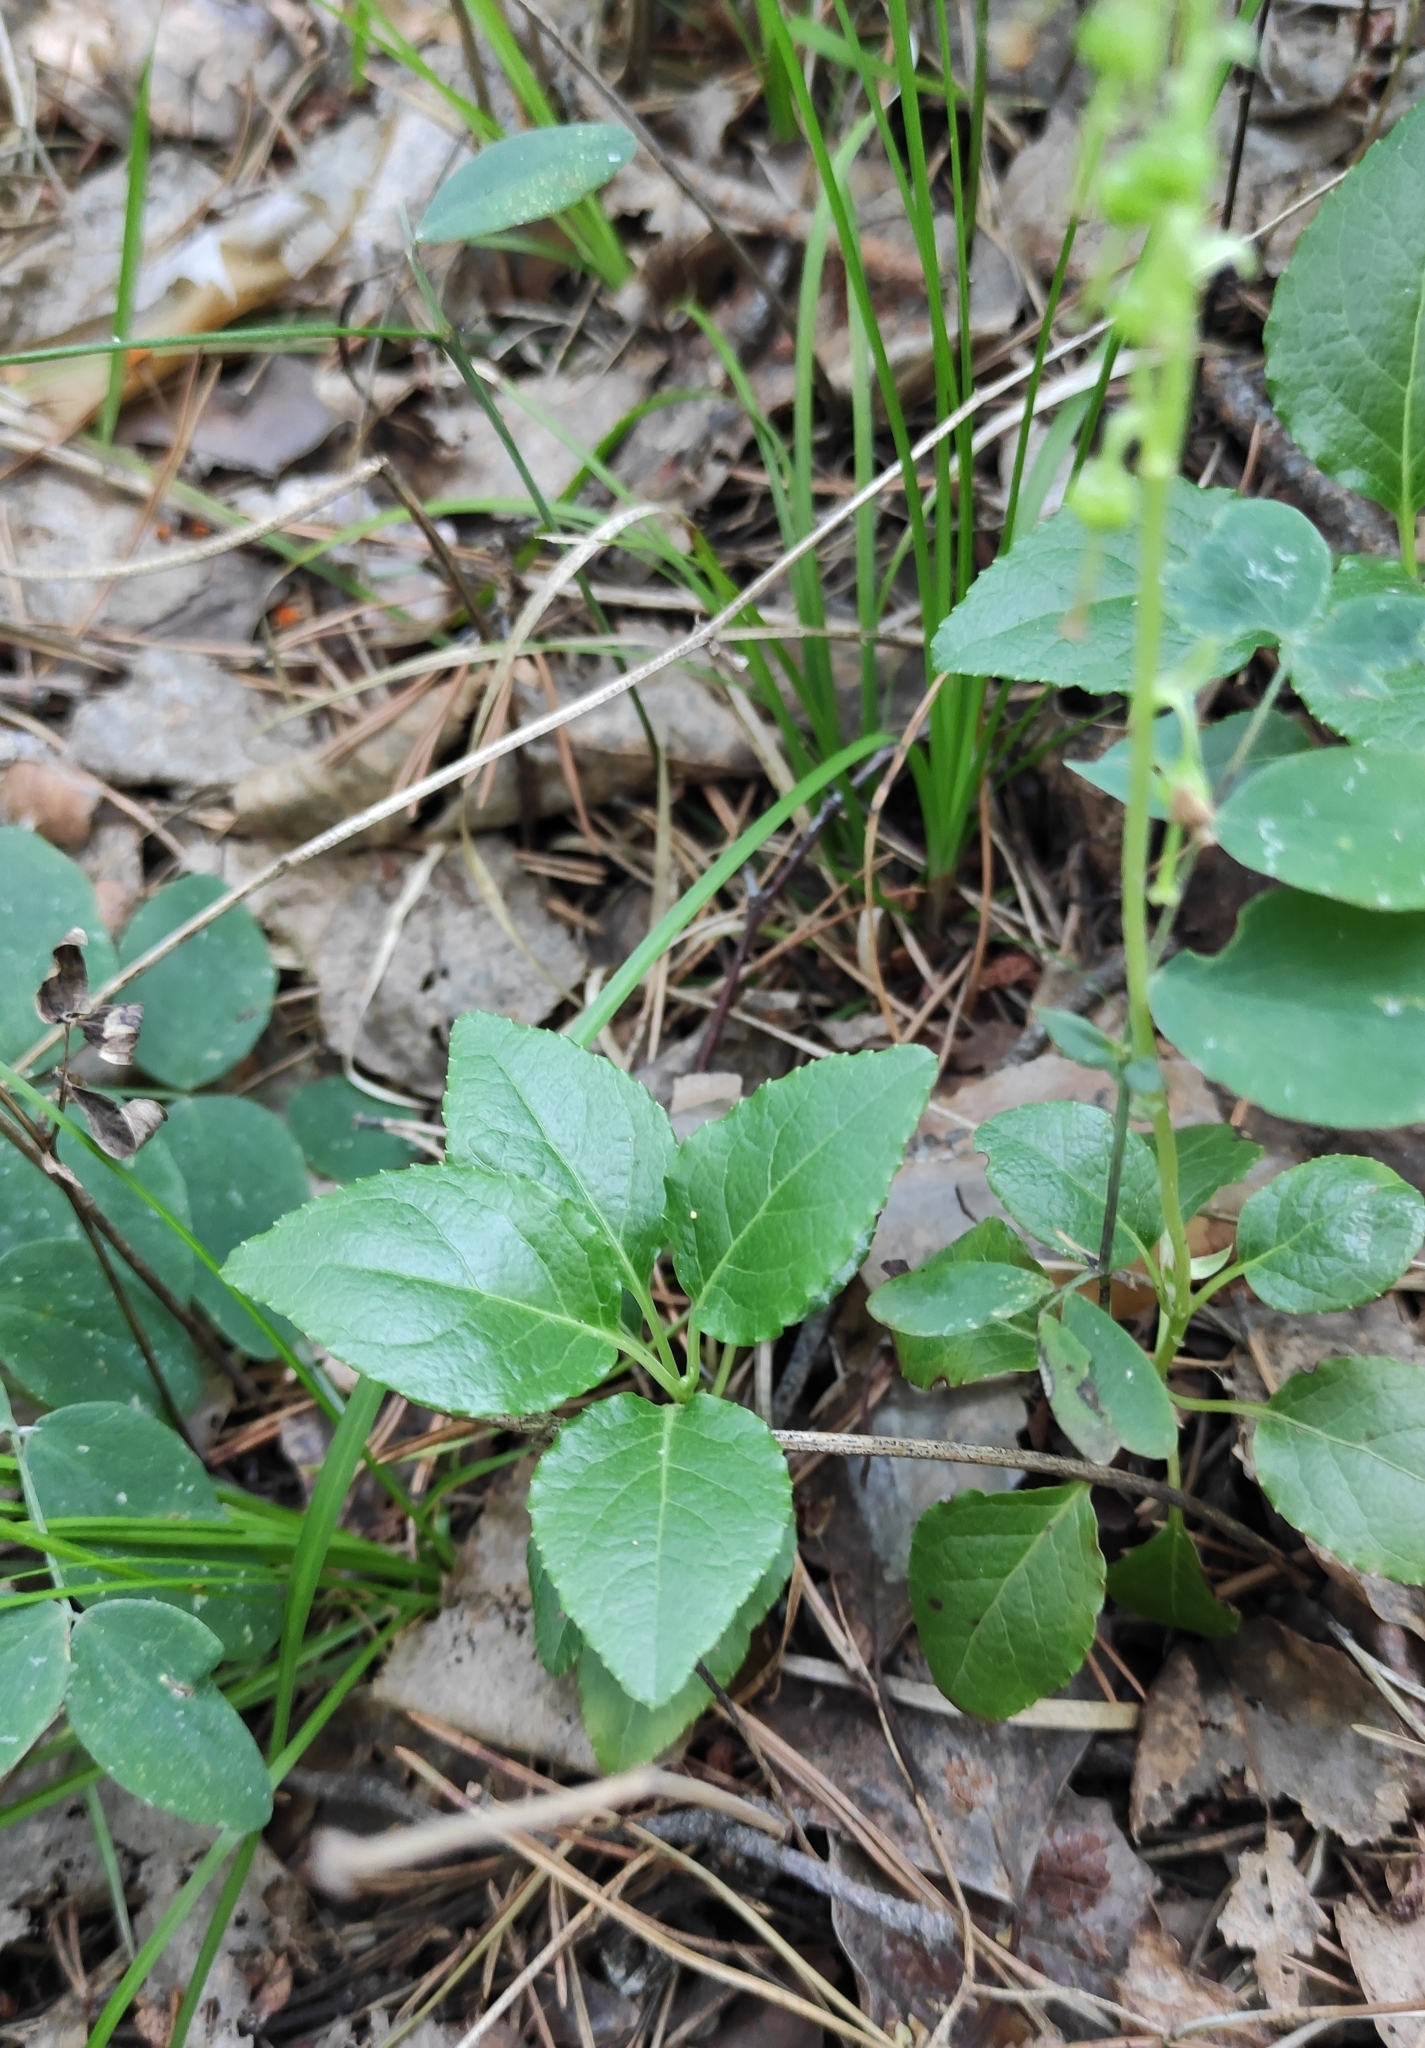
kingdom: Plantae
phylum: Tracheophyta
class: Magnoliopsida
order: Ericales
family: Ericaceae
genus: Orthilia
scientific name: Orthilia secunda
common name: One-sided orthilia
